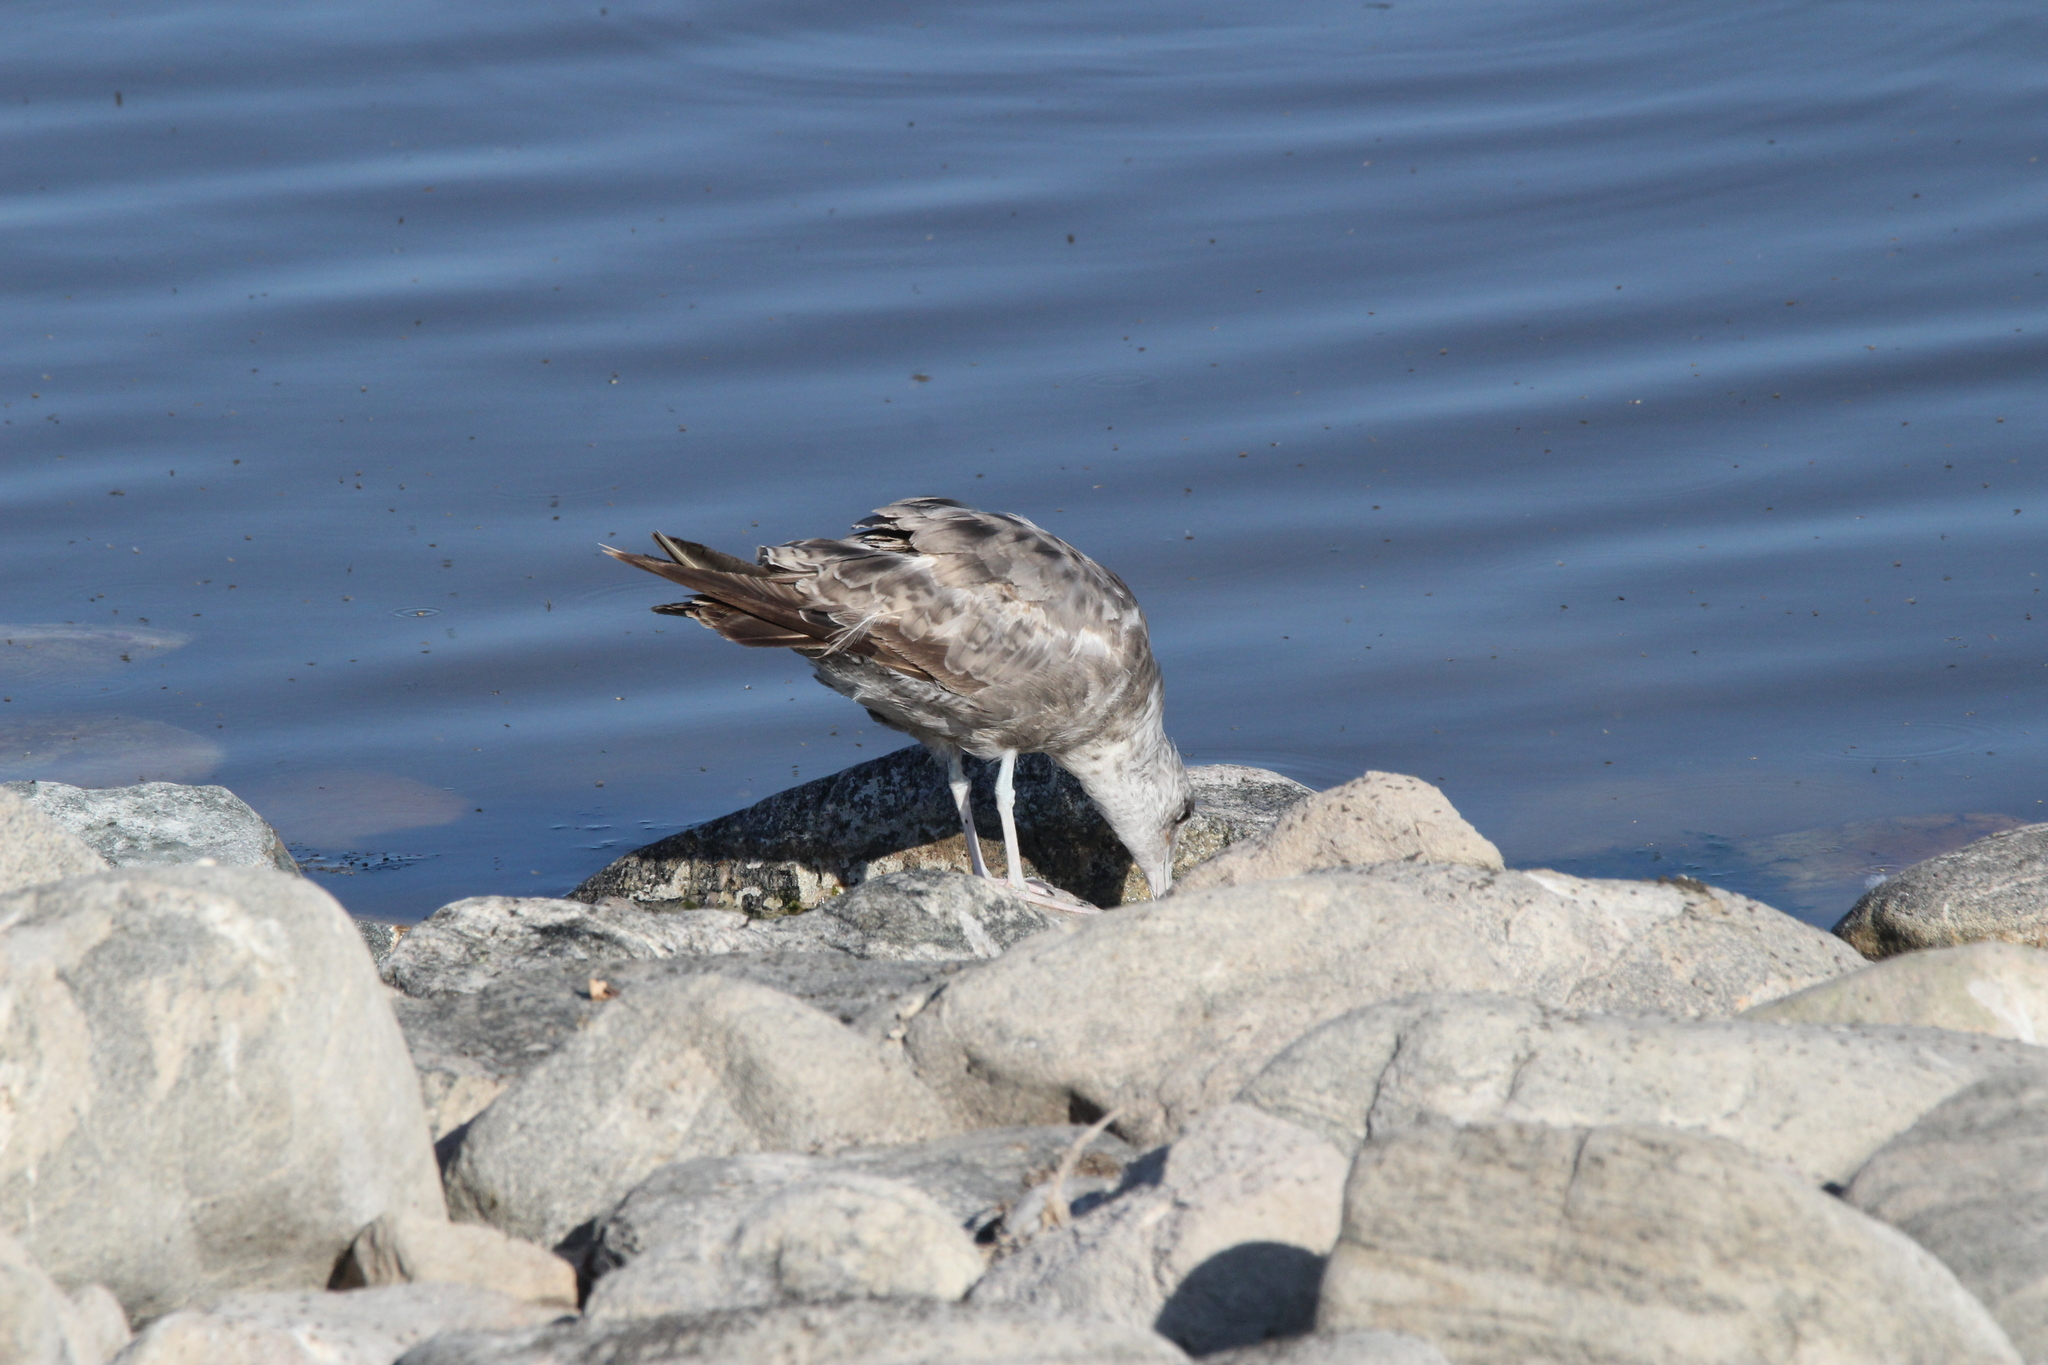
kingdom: Animalia
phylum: Chordata
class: Aves
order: Charadriiformes
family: Laridae
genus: Larus
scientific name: Larus californicus
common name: California gull
